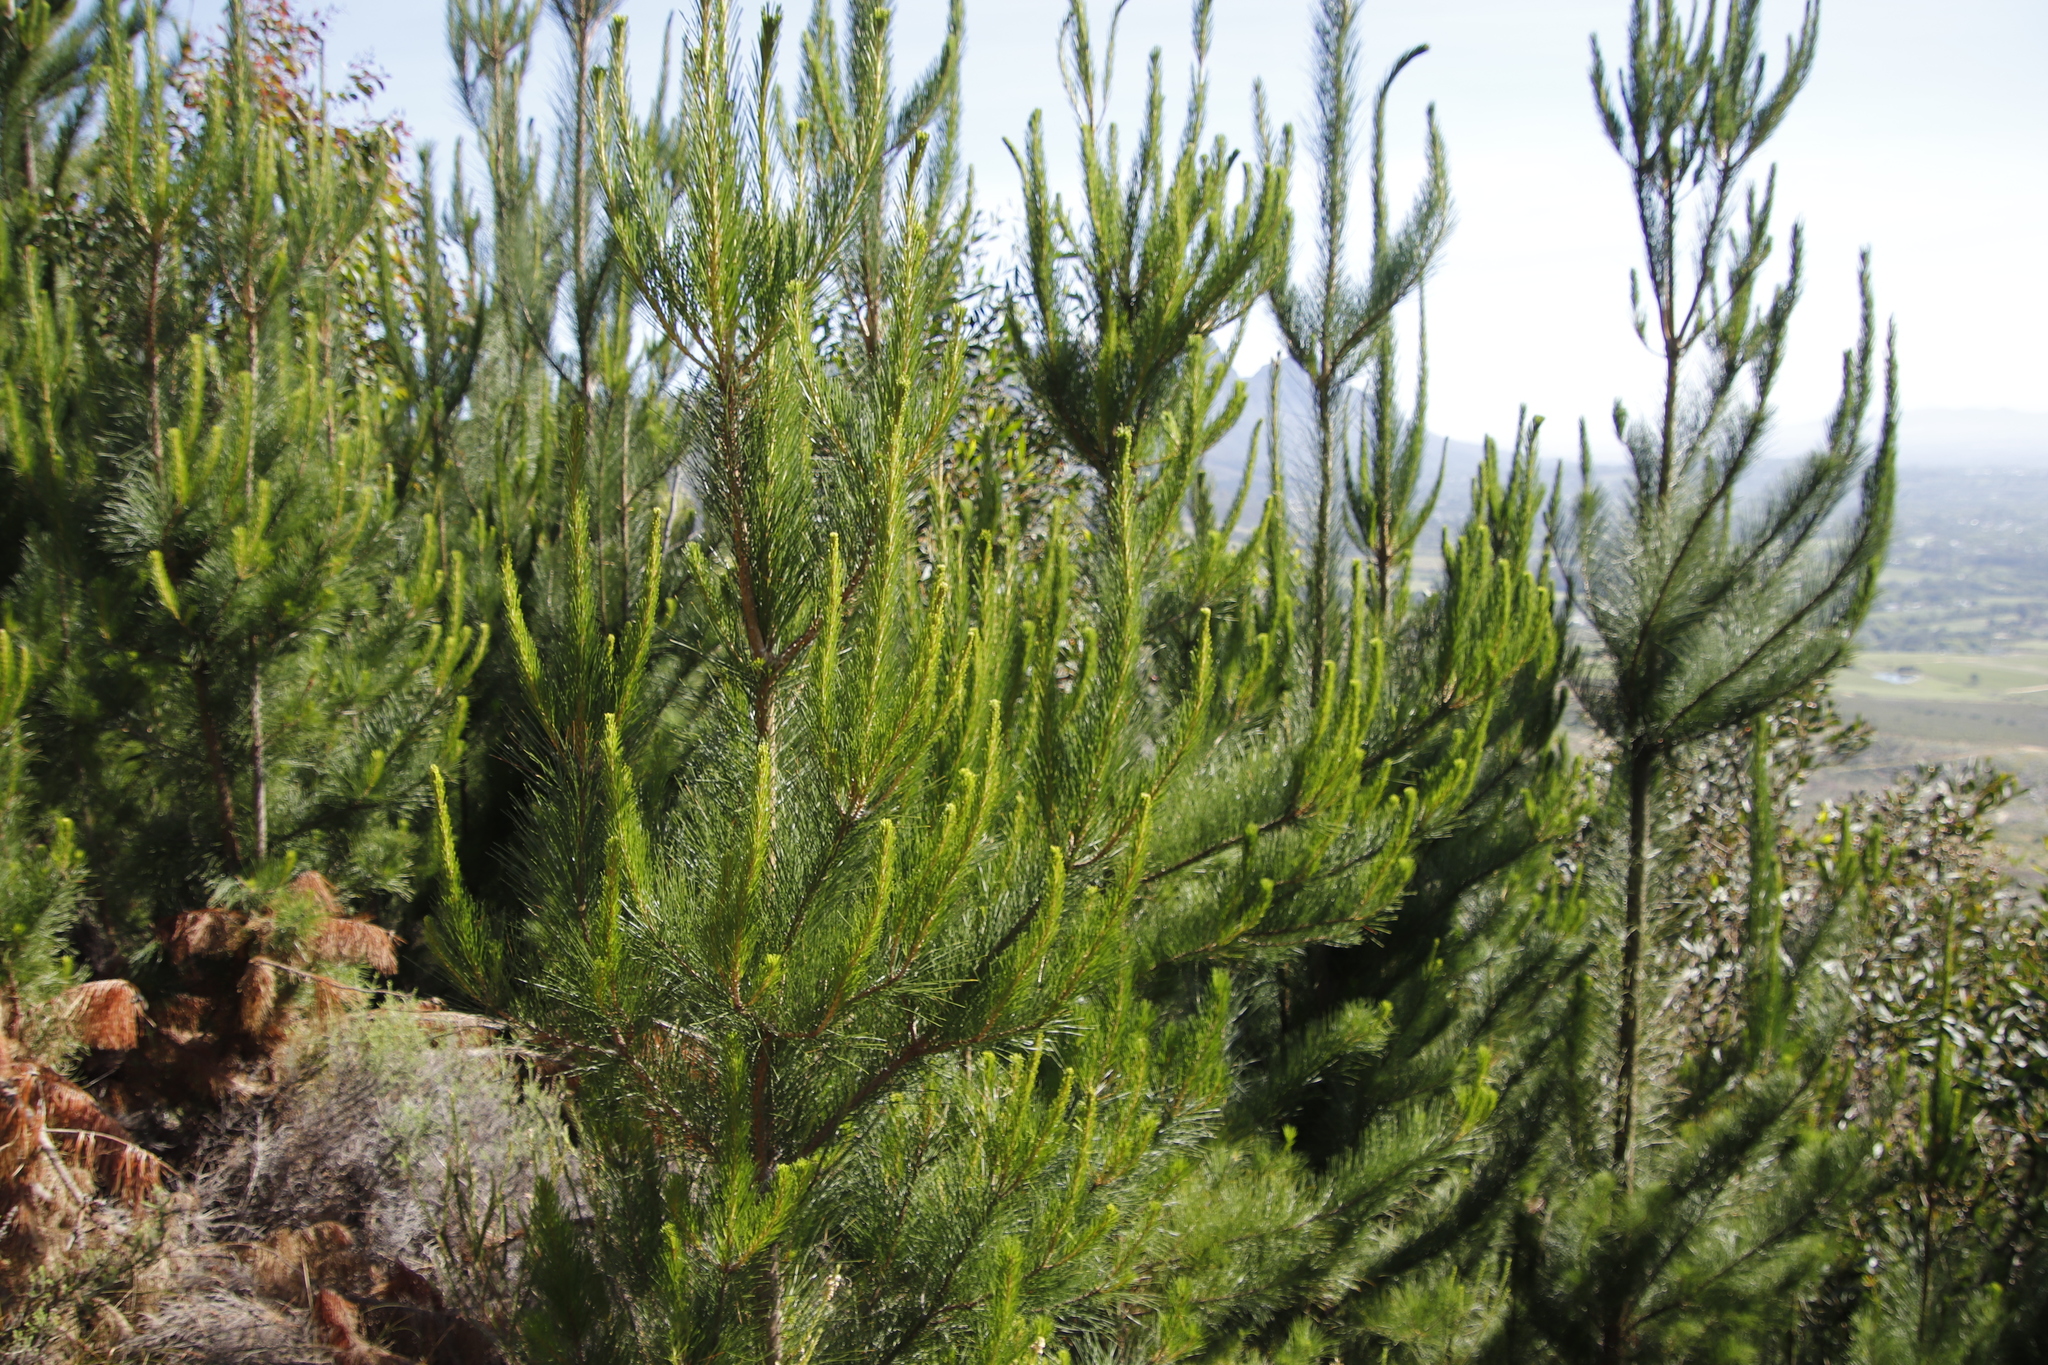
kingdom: Plantae
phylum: Tracheophyta
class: Pinopsida
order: Pinales
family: Pinaceae
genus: Pinus
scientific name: Pinus radiata
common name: Monterey pine
